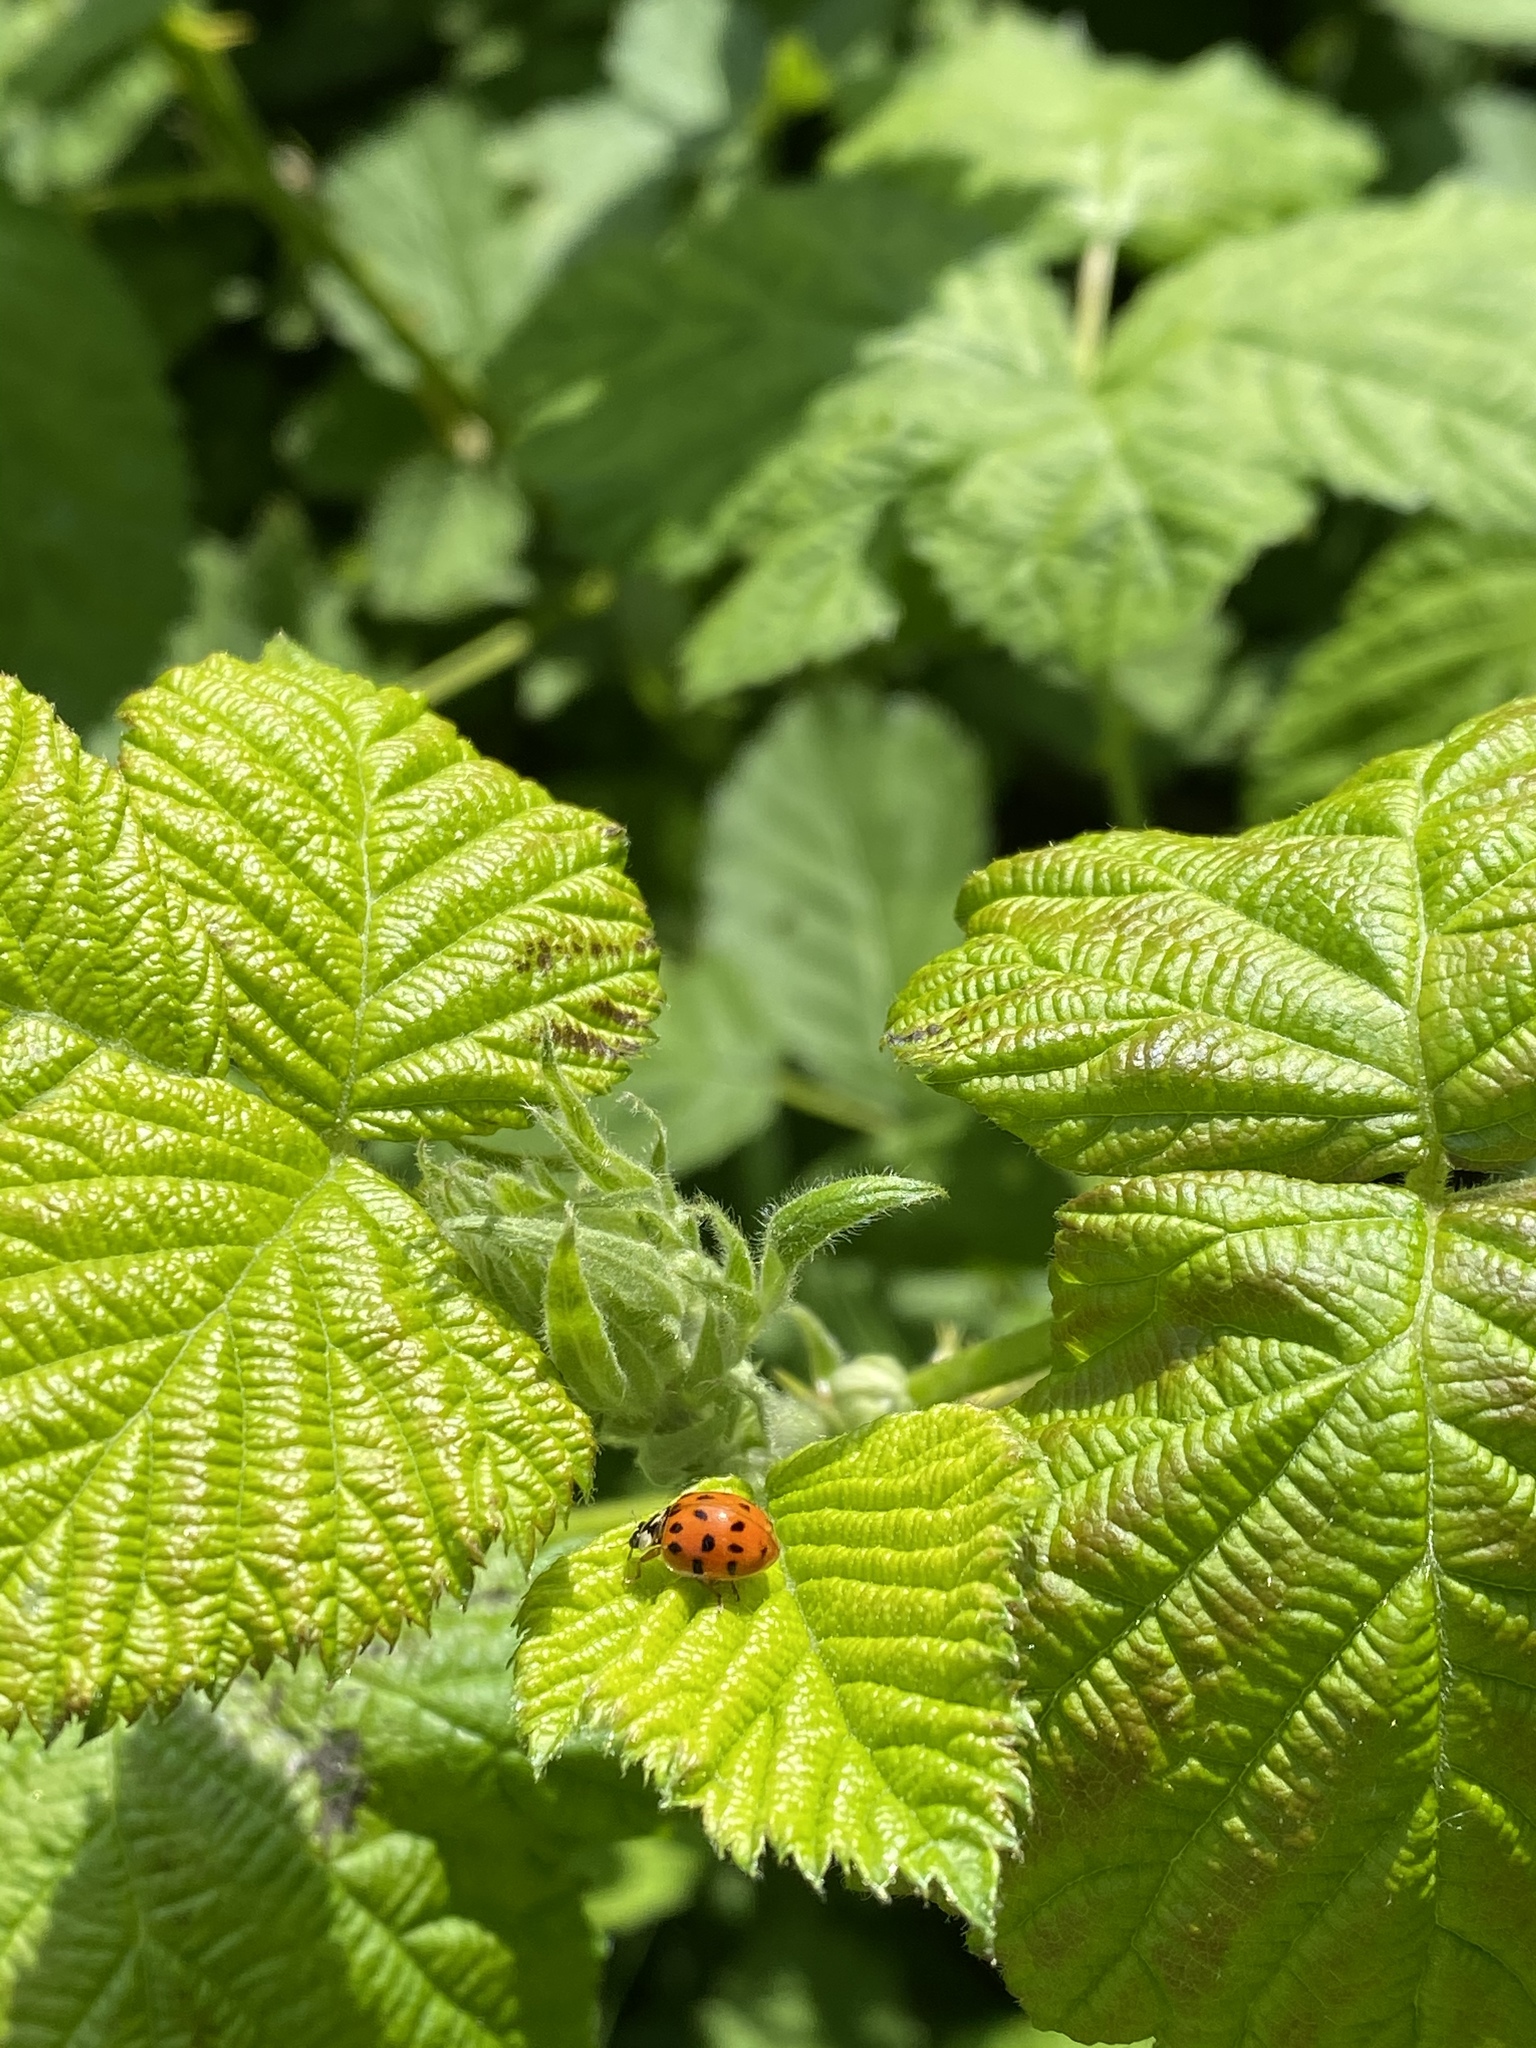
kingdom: Animalia
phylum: Arthropoda
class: Insecta
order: Coleoptera
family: Coccinellidae
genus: Harmonia
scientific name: Harmonia axyridis
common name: Harlequin ladybird
